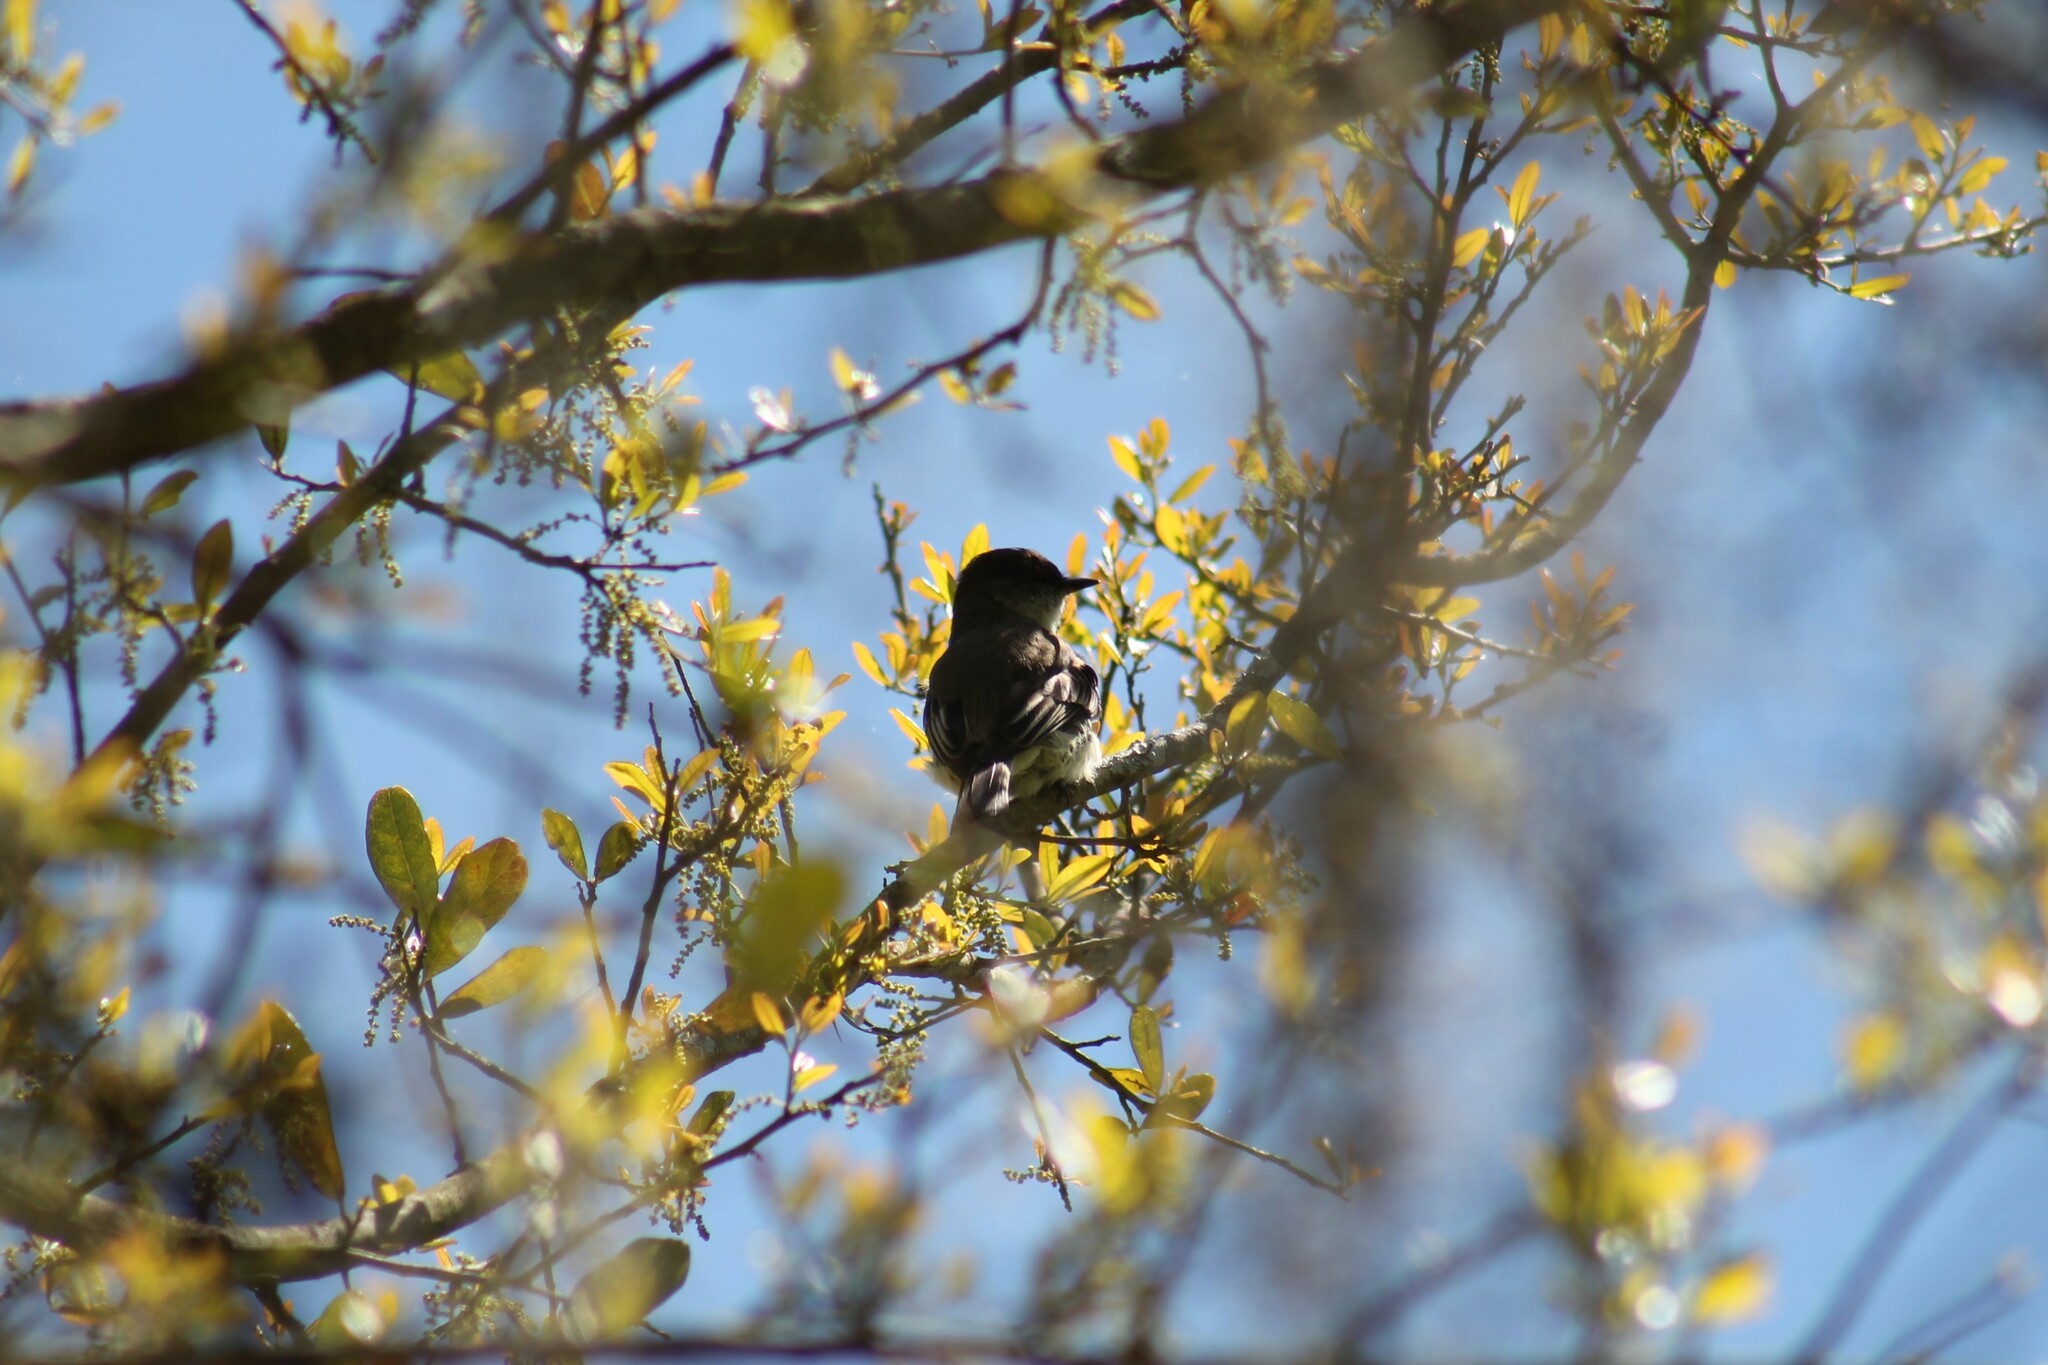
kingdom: Animalia
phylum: Chordata
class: Aves
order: Passeriformes
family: Tyrannidae
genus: Sayornis
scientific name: Sayornis phoebe
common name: Eastern phoebe
